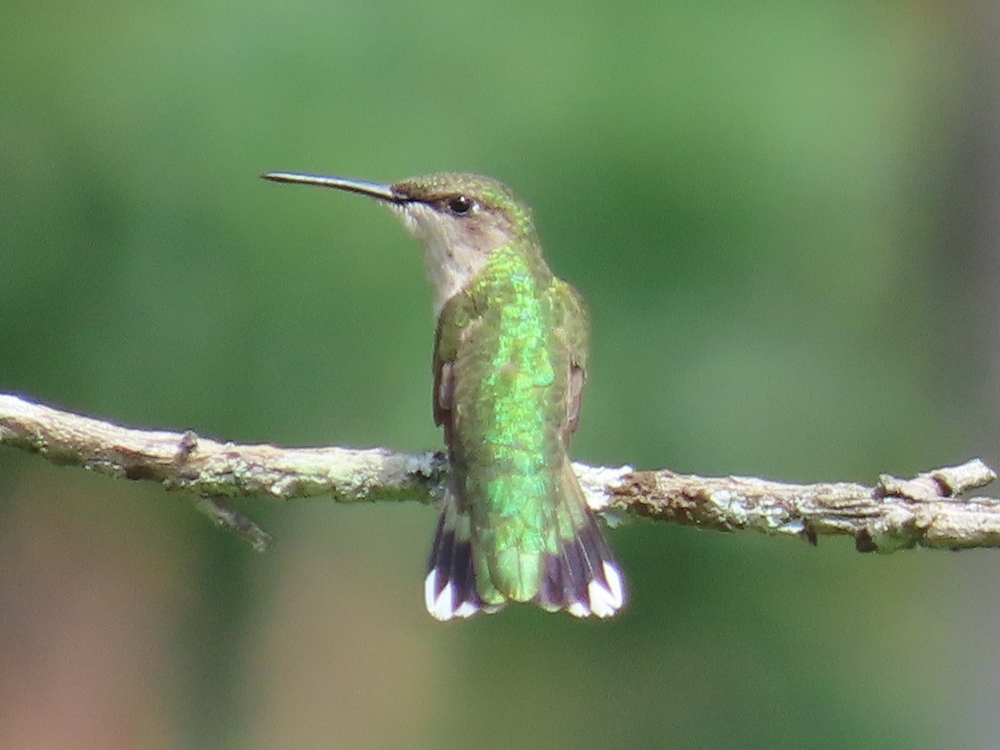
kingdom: Animalia
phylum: Chordata
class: Aves
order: Apodiformes
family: Trochilidae
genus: Archilochus
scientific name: Archilochus colubris
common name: Ruby-throated hummingbird
